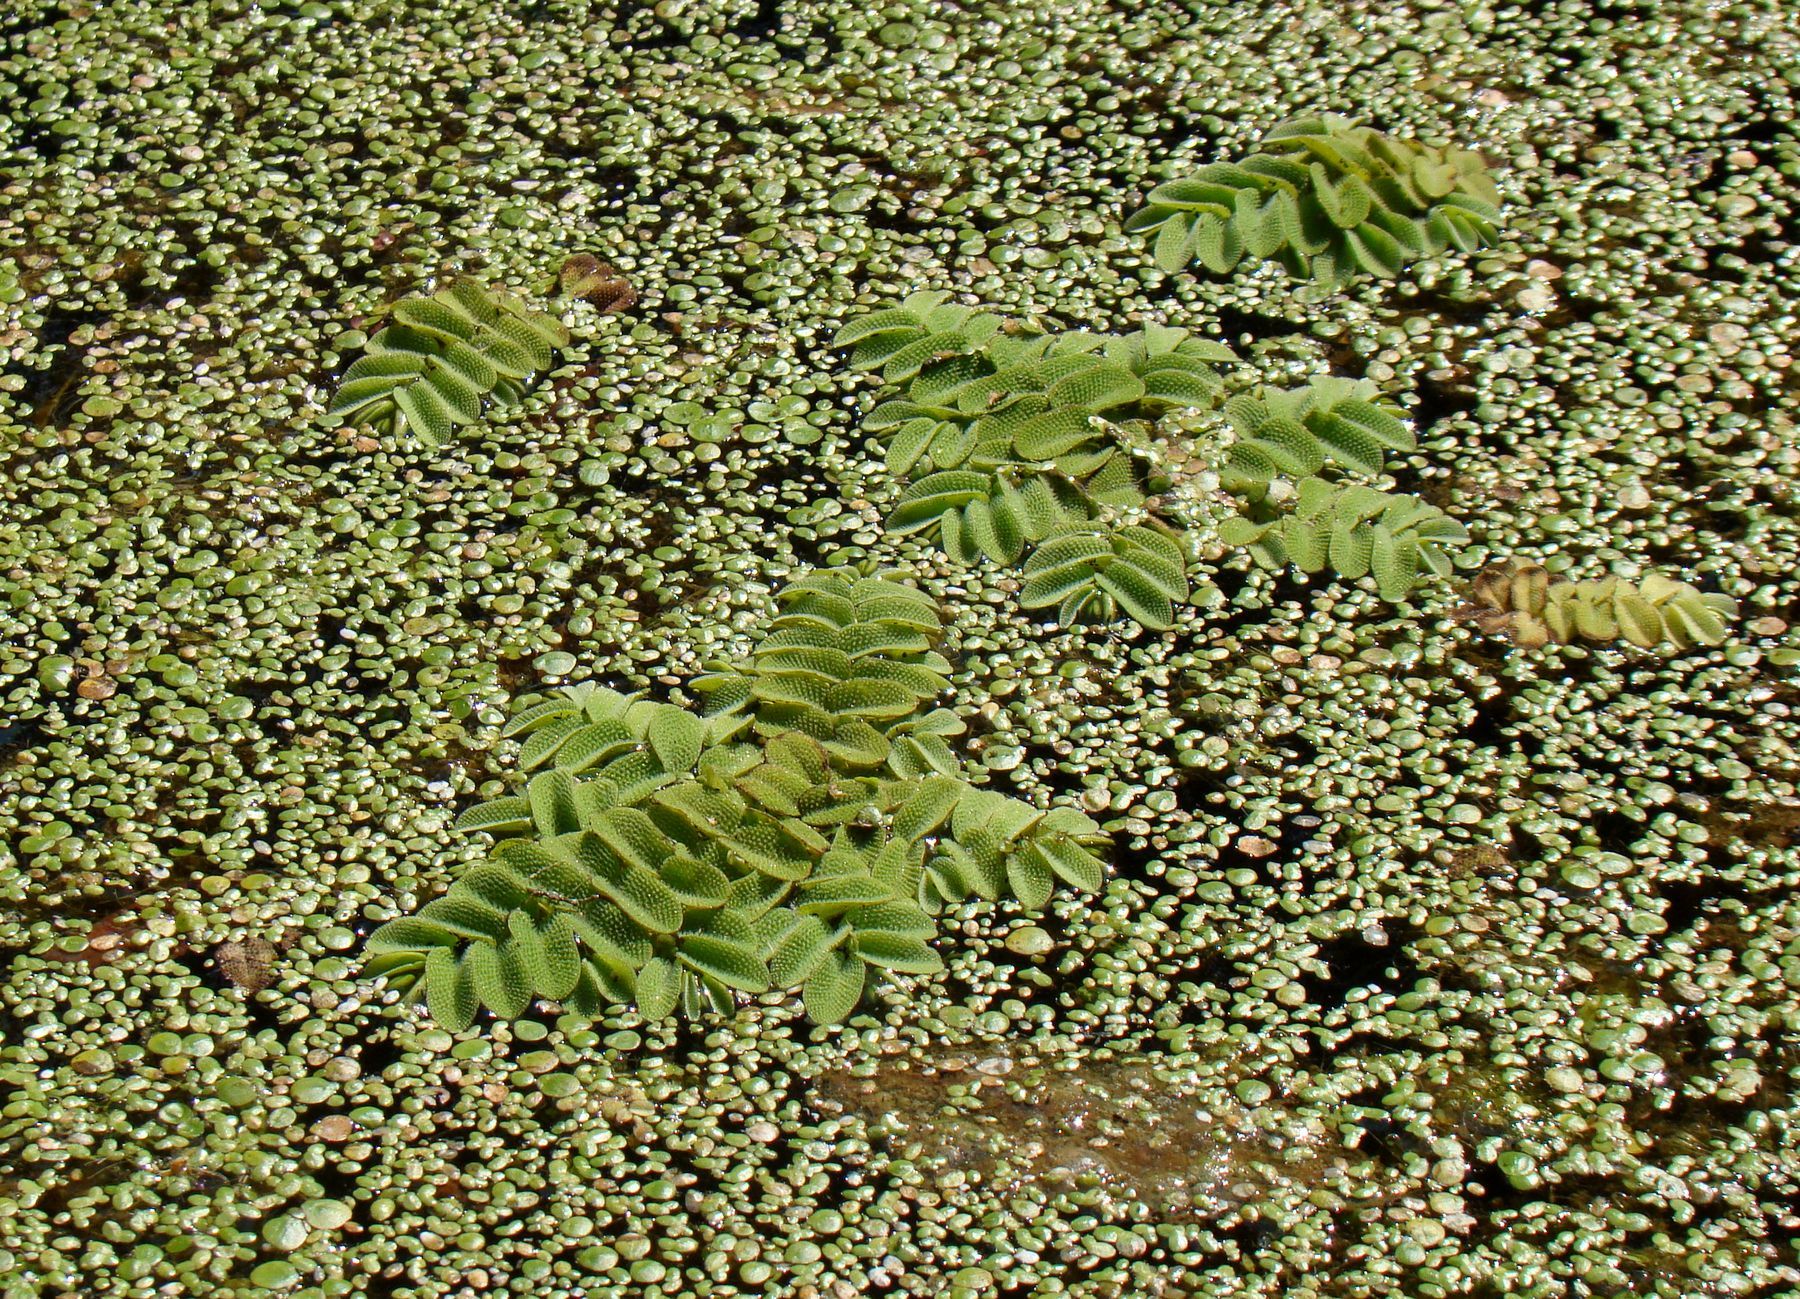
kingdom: Plantae
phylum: Tracheophyta
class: Polypodiopsida
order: Salviniales
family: Salviniaceae
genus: Salvinia
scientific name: Salvinia natans
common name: Floating fern
